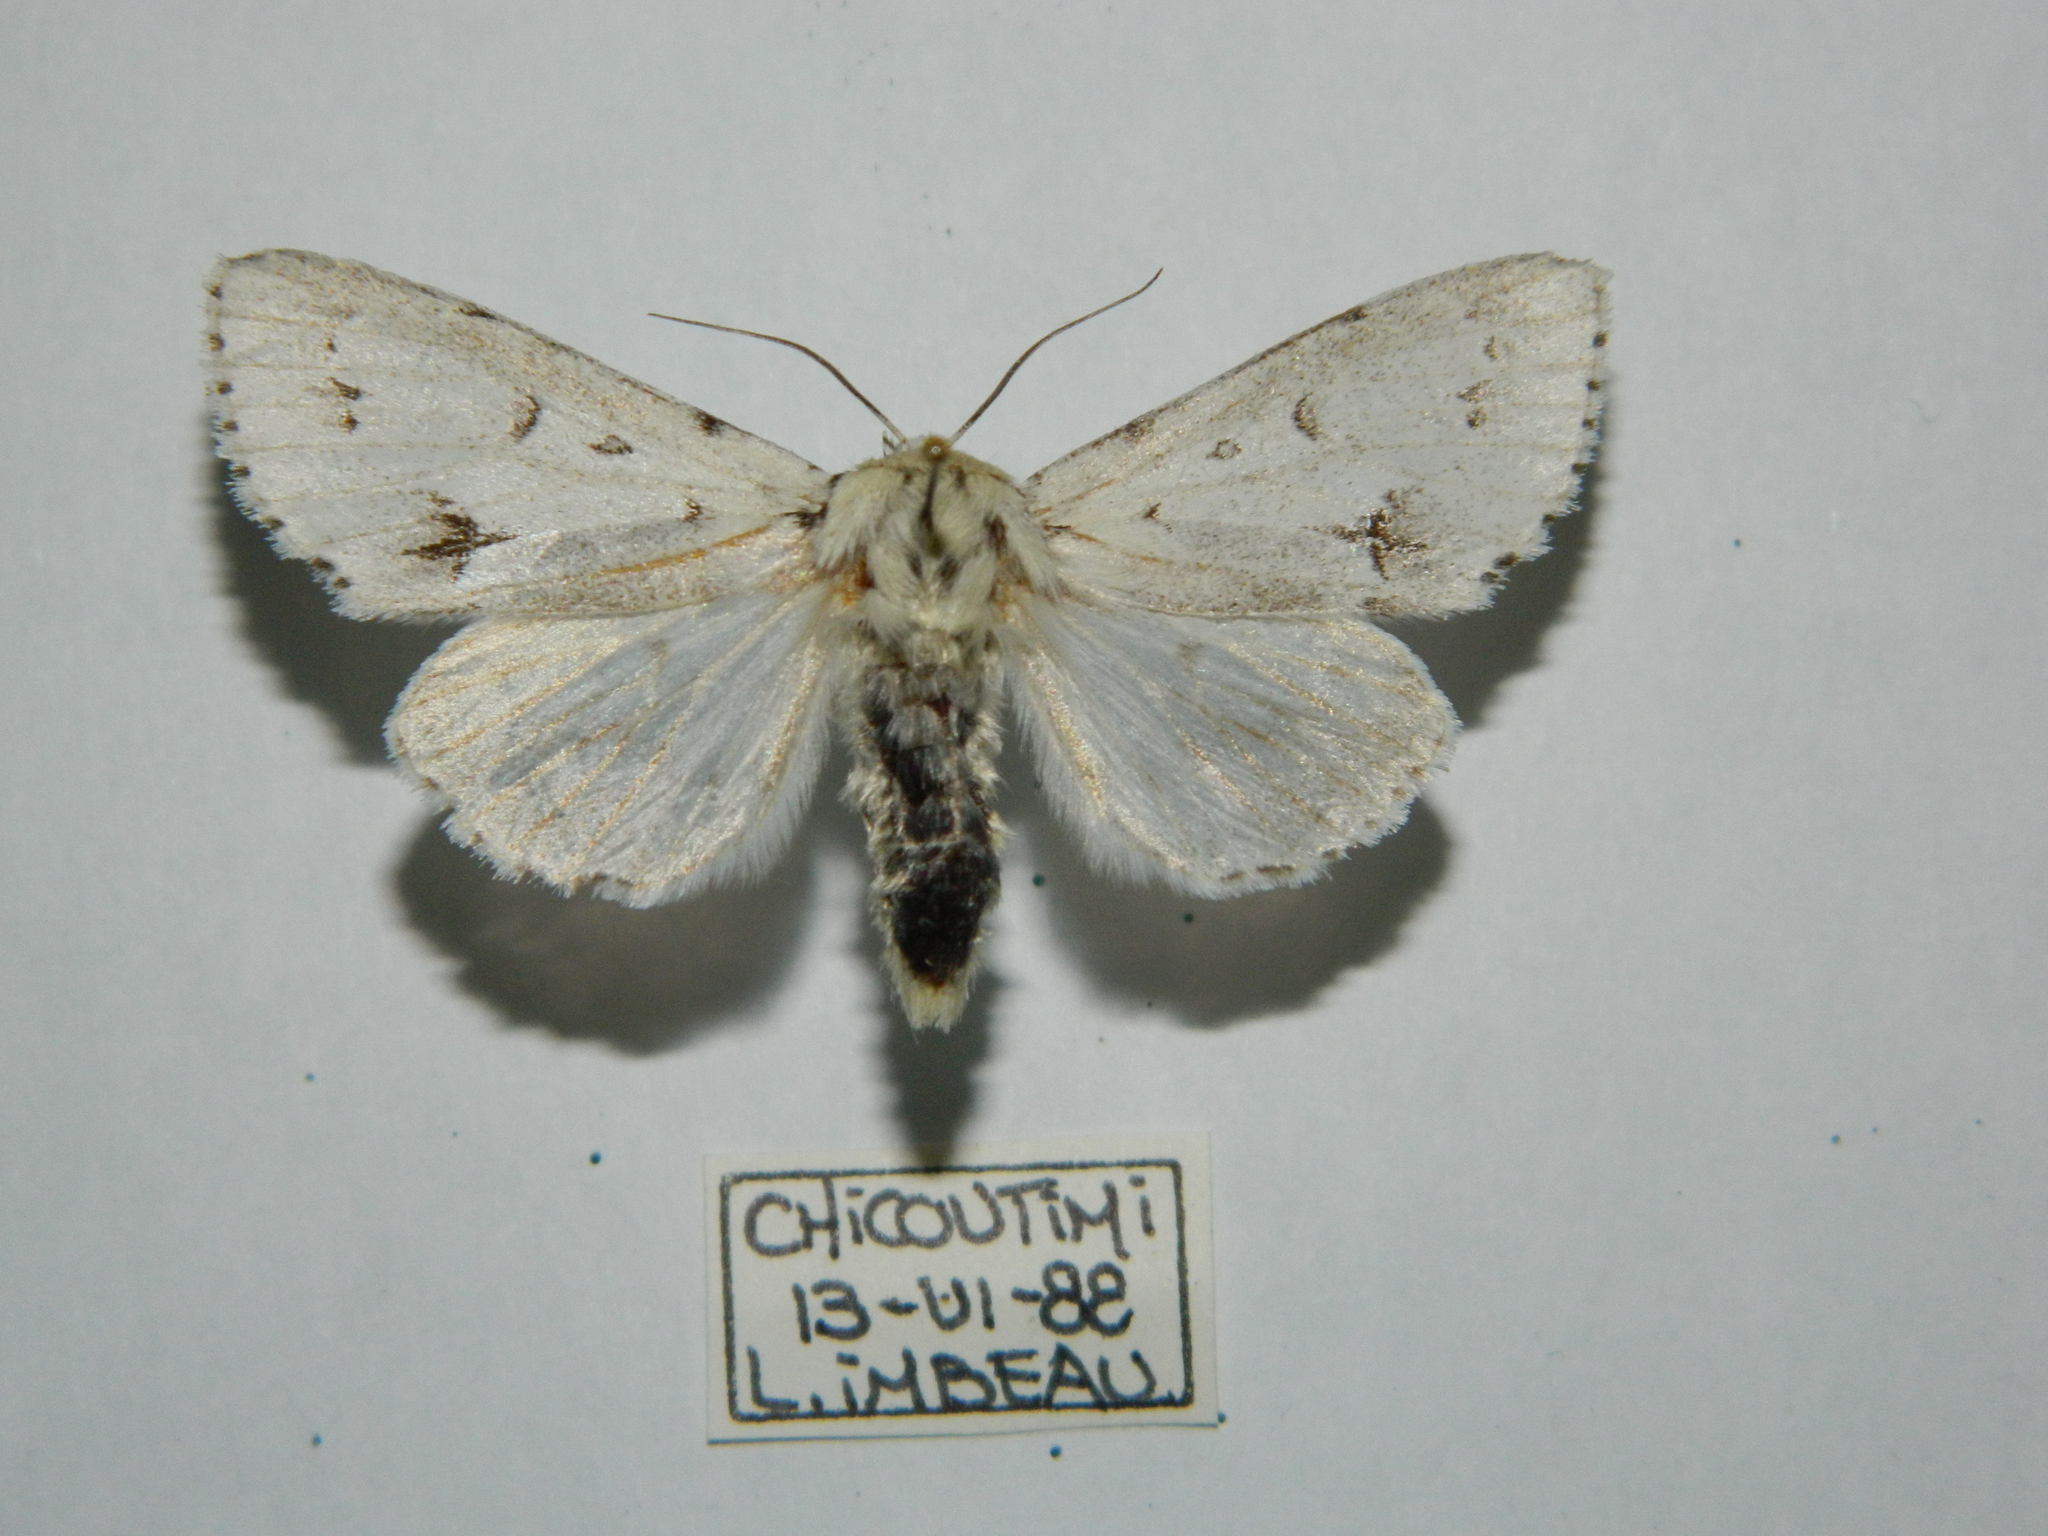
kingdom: Animalia
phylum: Arthropoda
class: Insecta
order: Lepidoptera
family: Noctuidae
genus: Acronicta
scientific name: Acronicta vulpina
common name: Miller dagger
